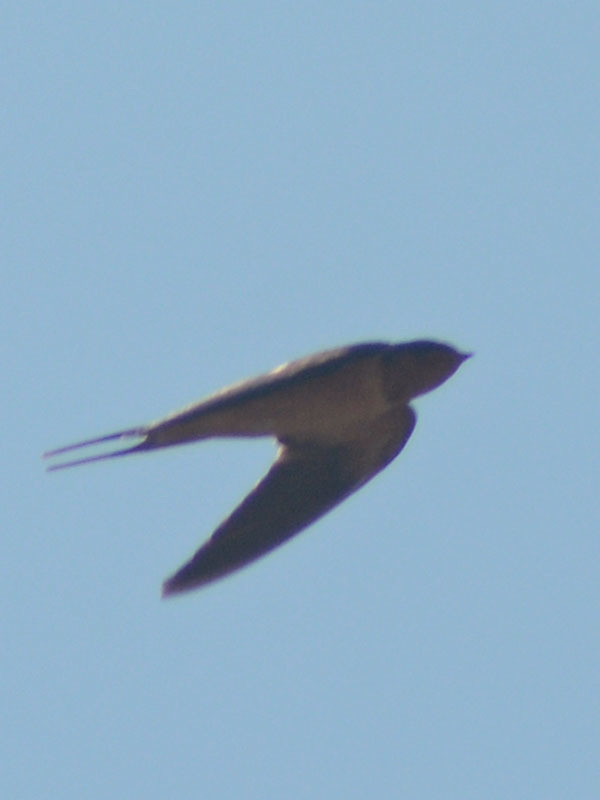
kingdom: Animalia
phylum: Chordata
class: Aves
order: Passeriformes
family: Hirundinidae
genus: Hirundo
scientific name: Hirundo rustica
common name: Barn swallow
